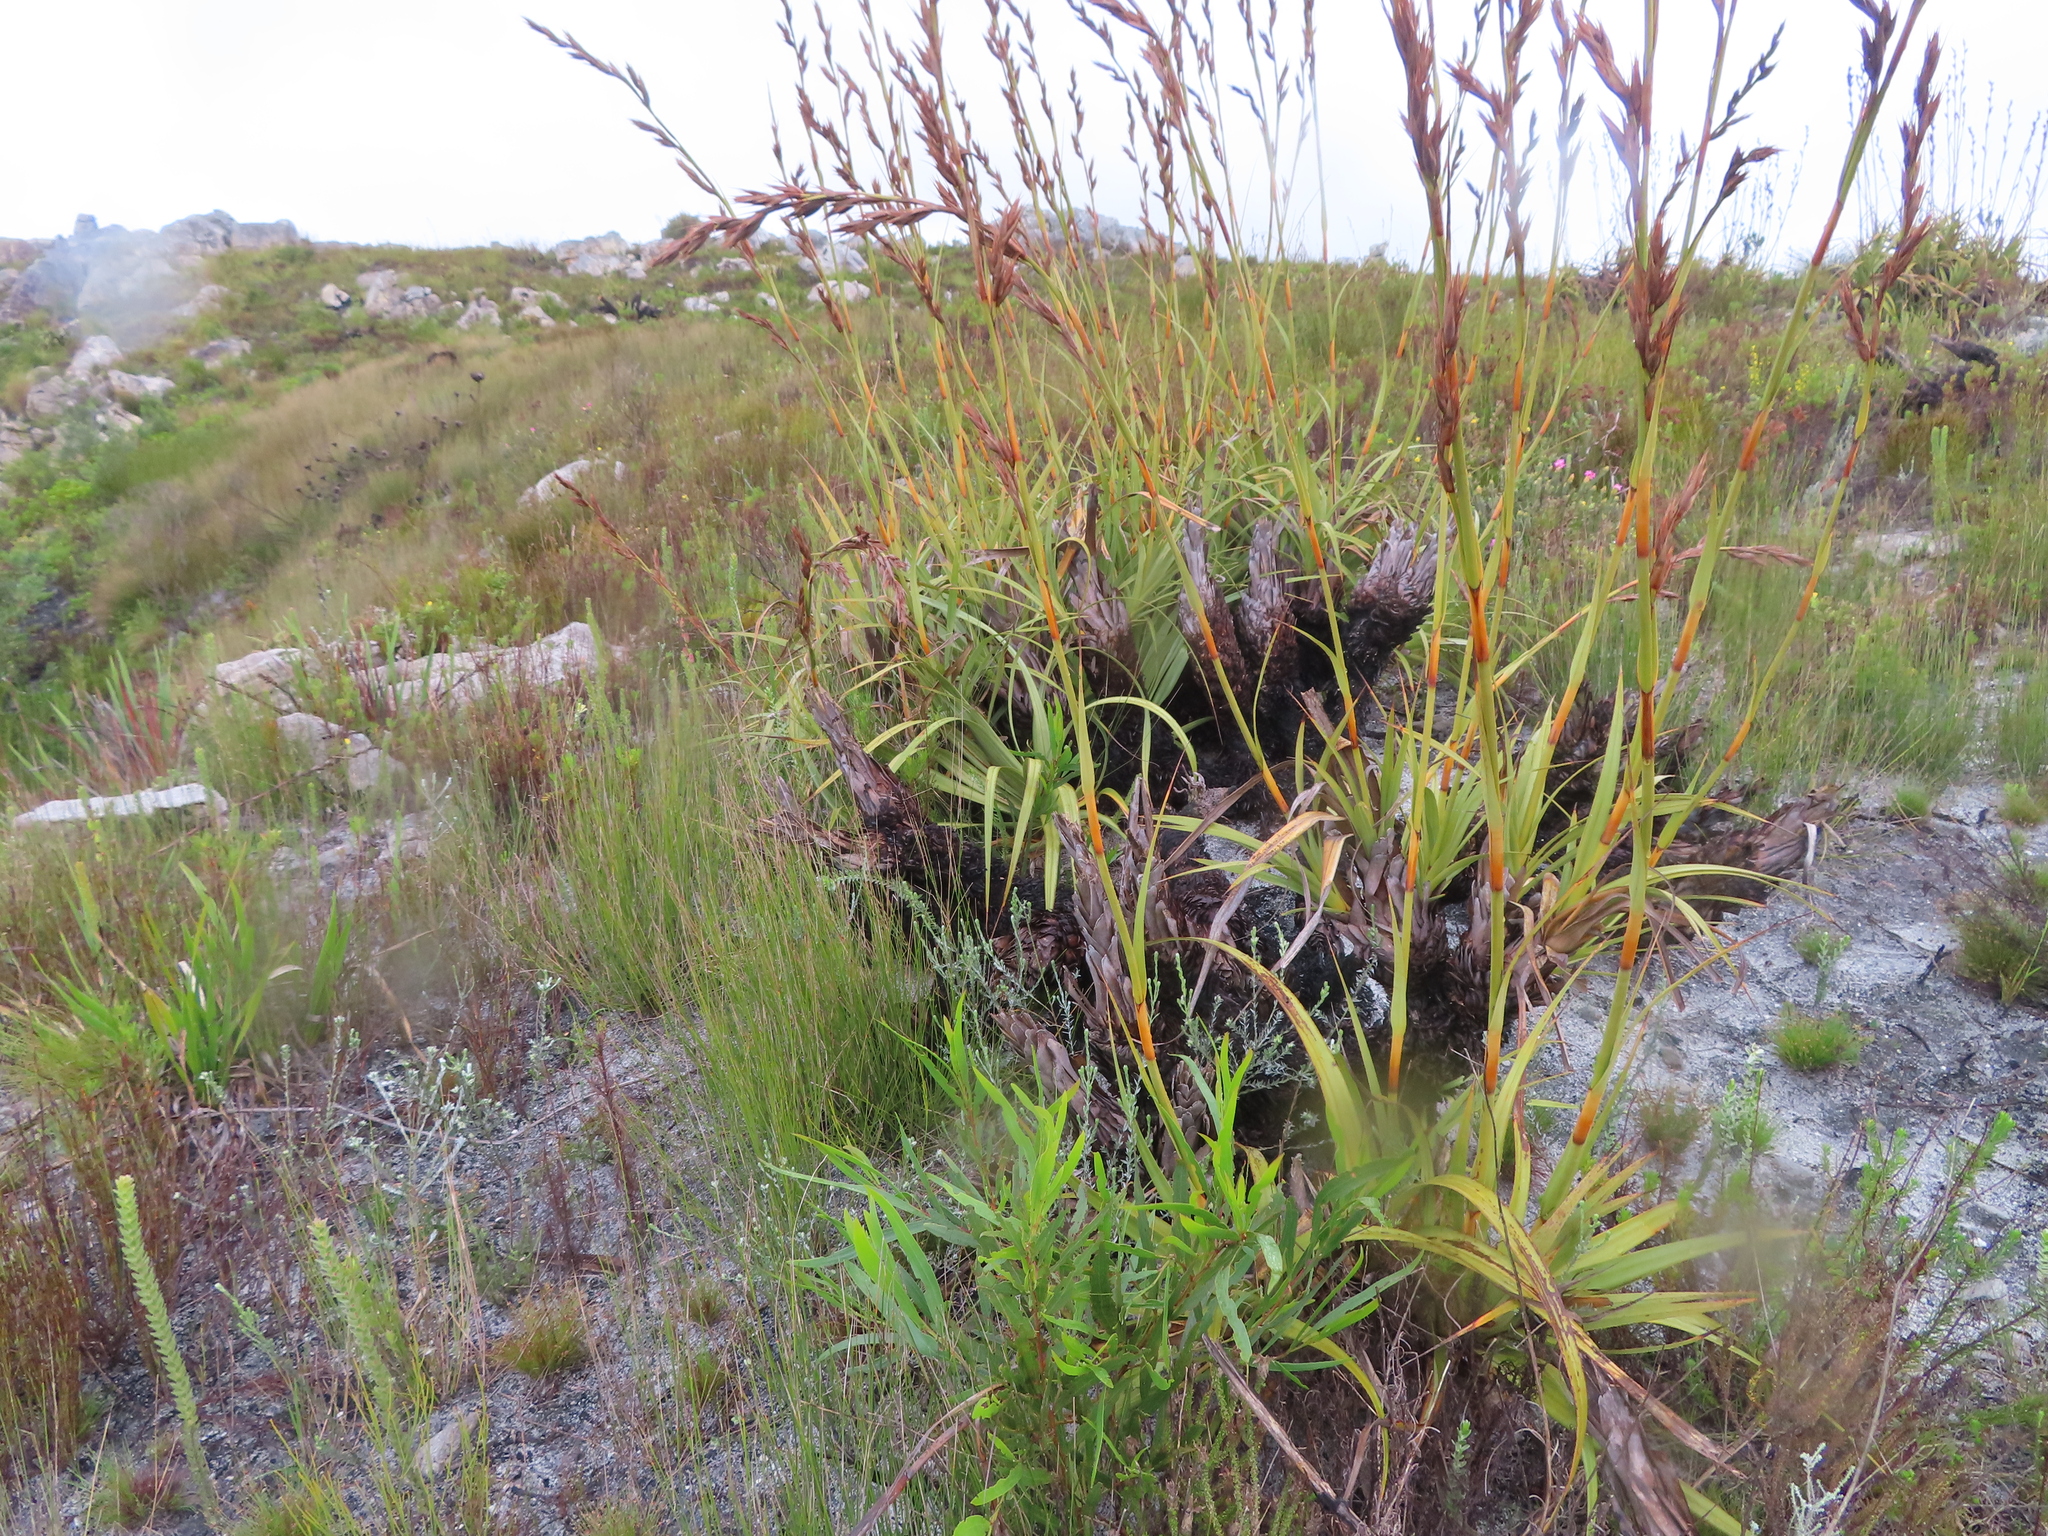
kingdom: Plantae
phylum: Tracheophyta
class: Liliopsida
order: Poales
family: Cyperaceae
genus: Tetraria
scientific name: Tetraria thermalis
